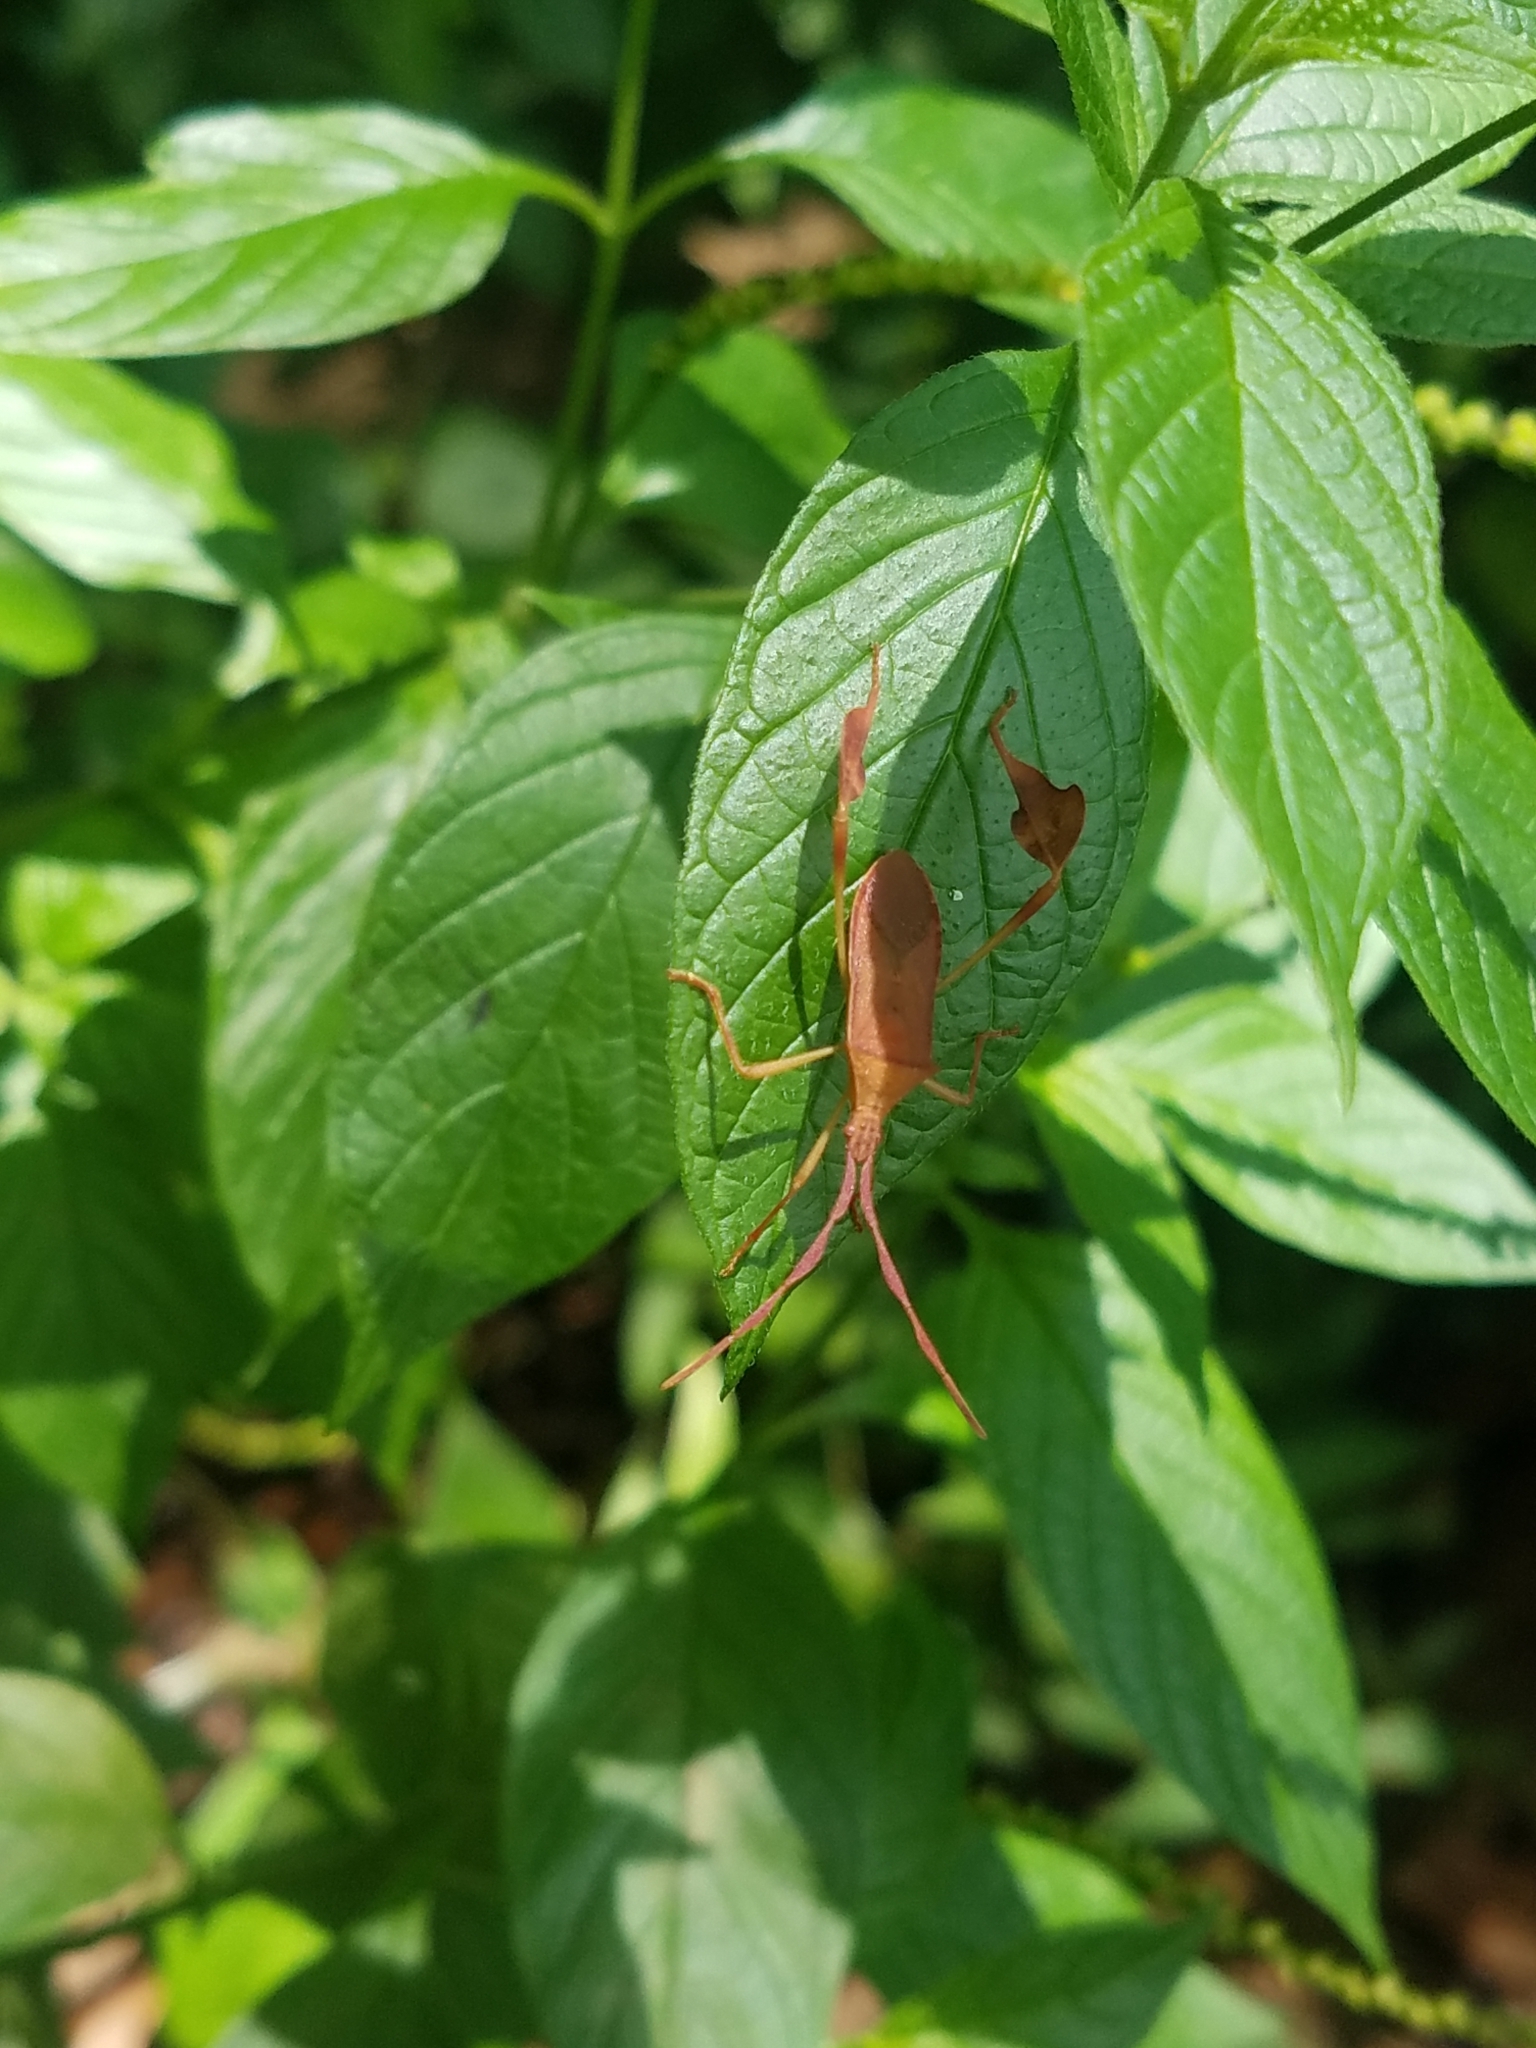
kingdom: Animalia
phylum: Arthropoda
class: Insecta
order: Hemiptera
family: Coreidae
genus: Chondrocera
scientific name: Chondrocera laticornis
